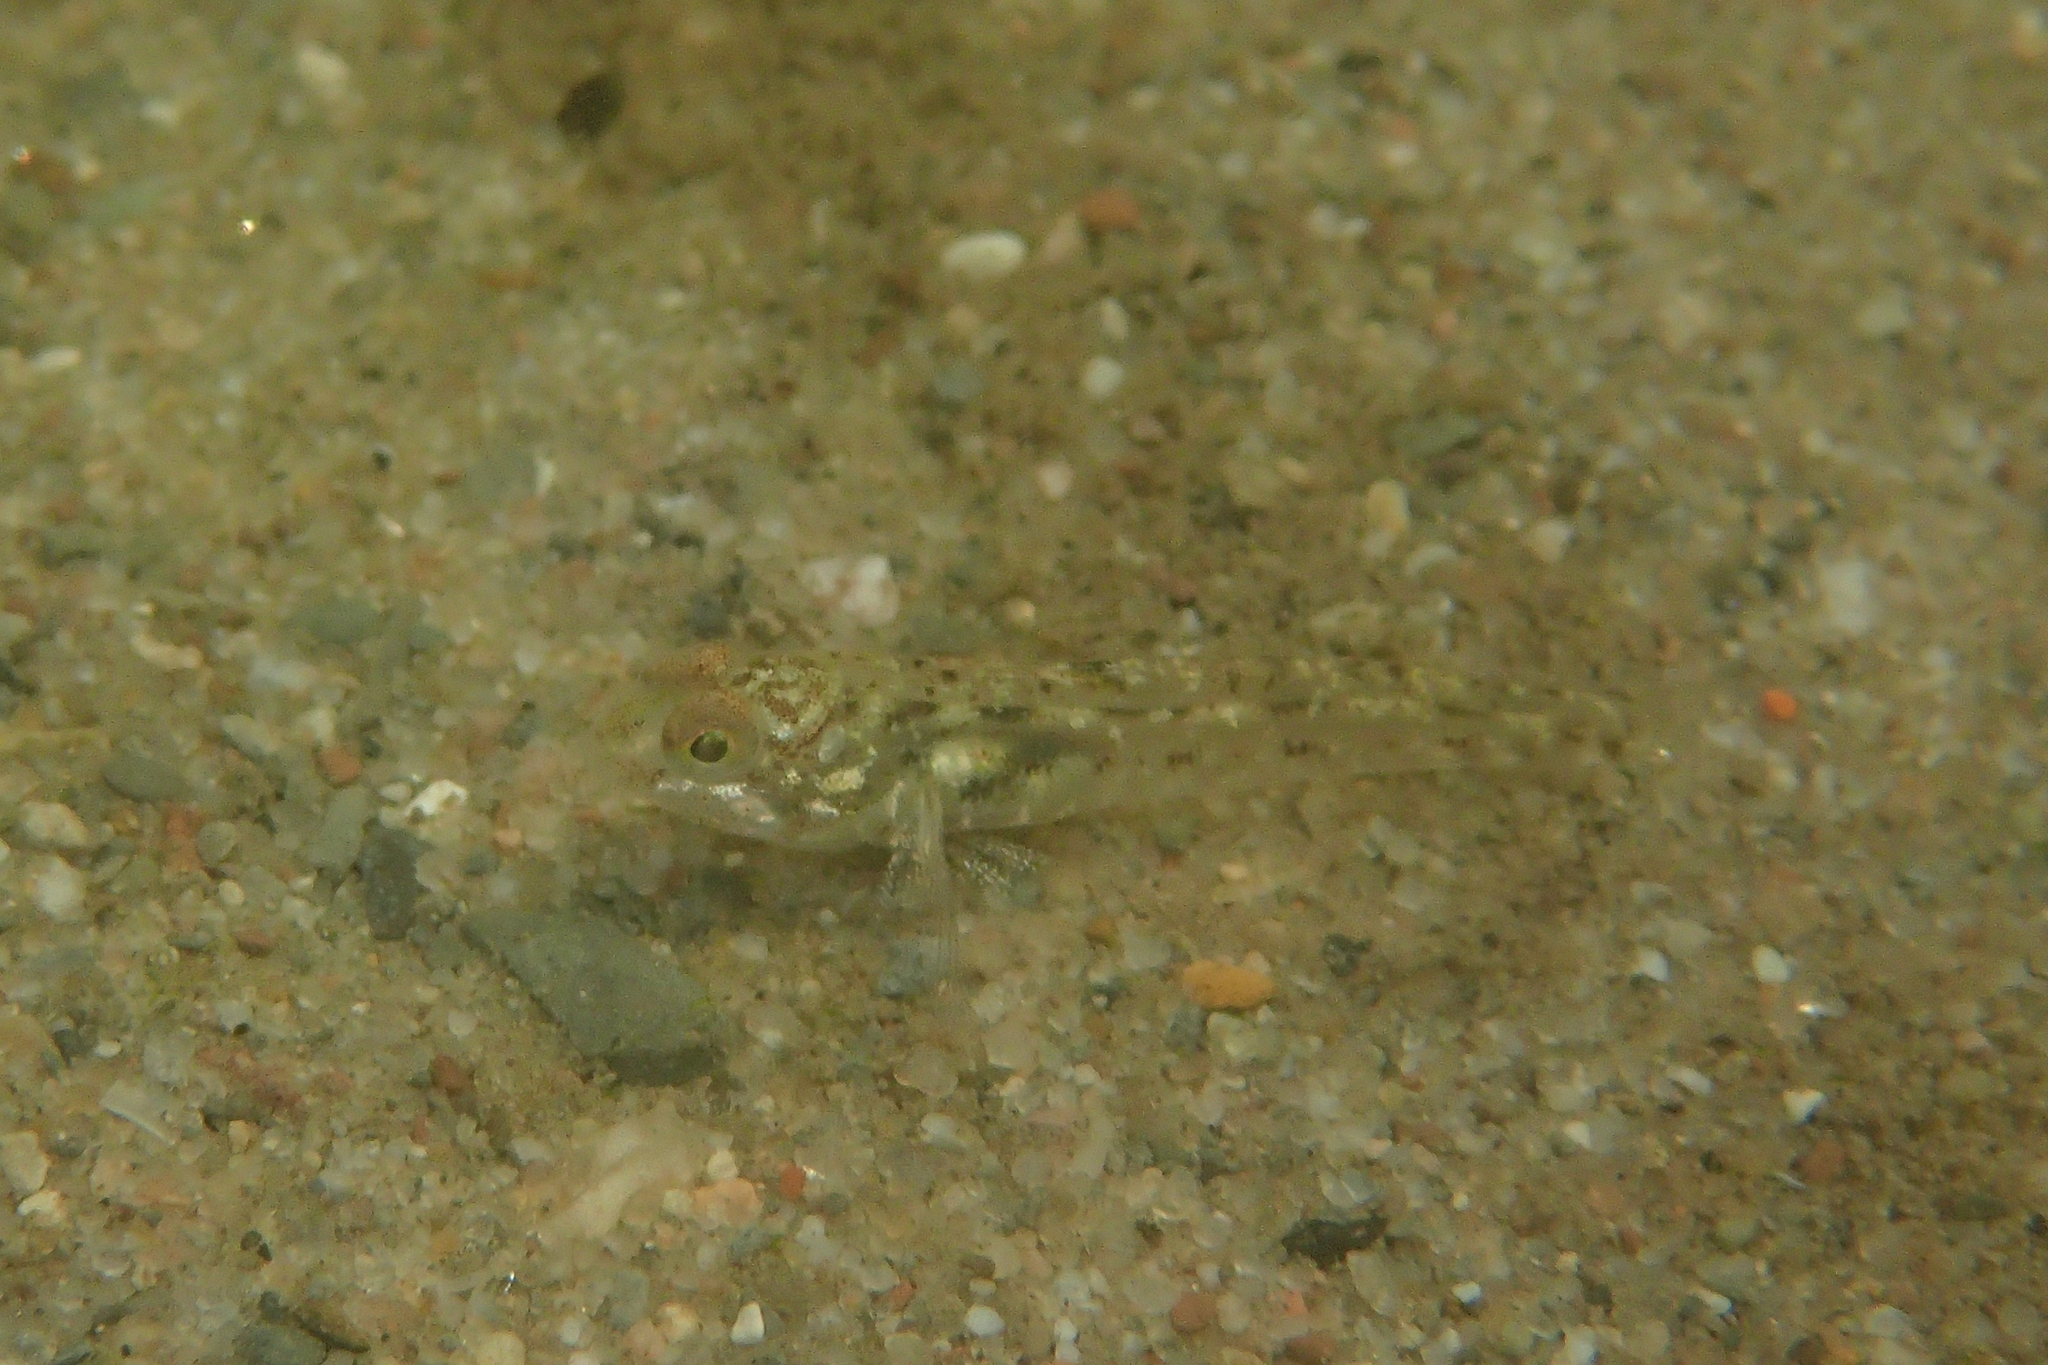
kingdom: Animalia
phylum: Chordata
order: Perciformes
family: Gobiidae
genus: Neogobius
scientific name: Neogobius melanostomus
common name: Round goby
